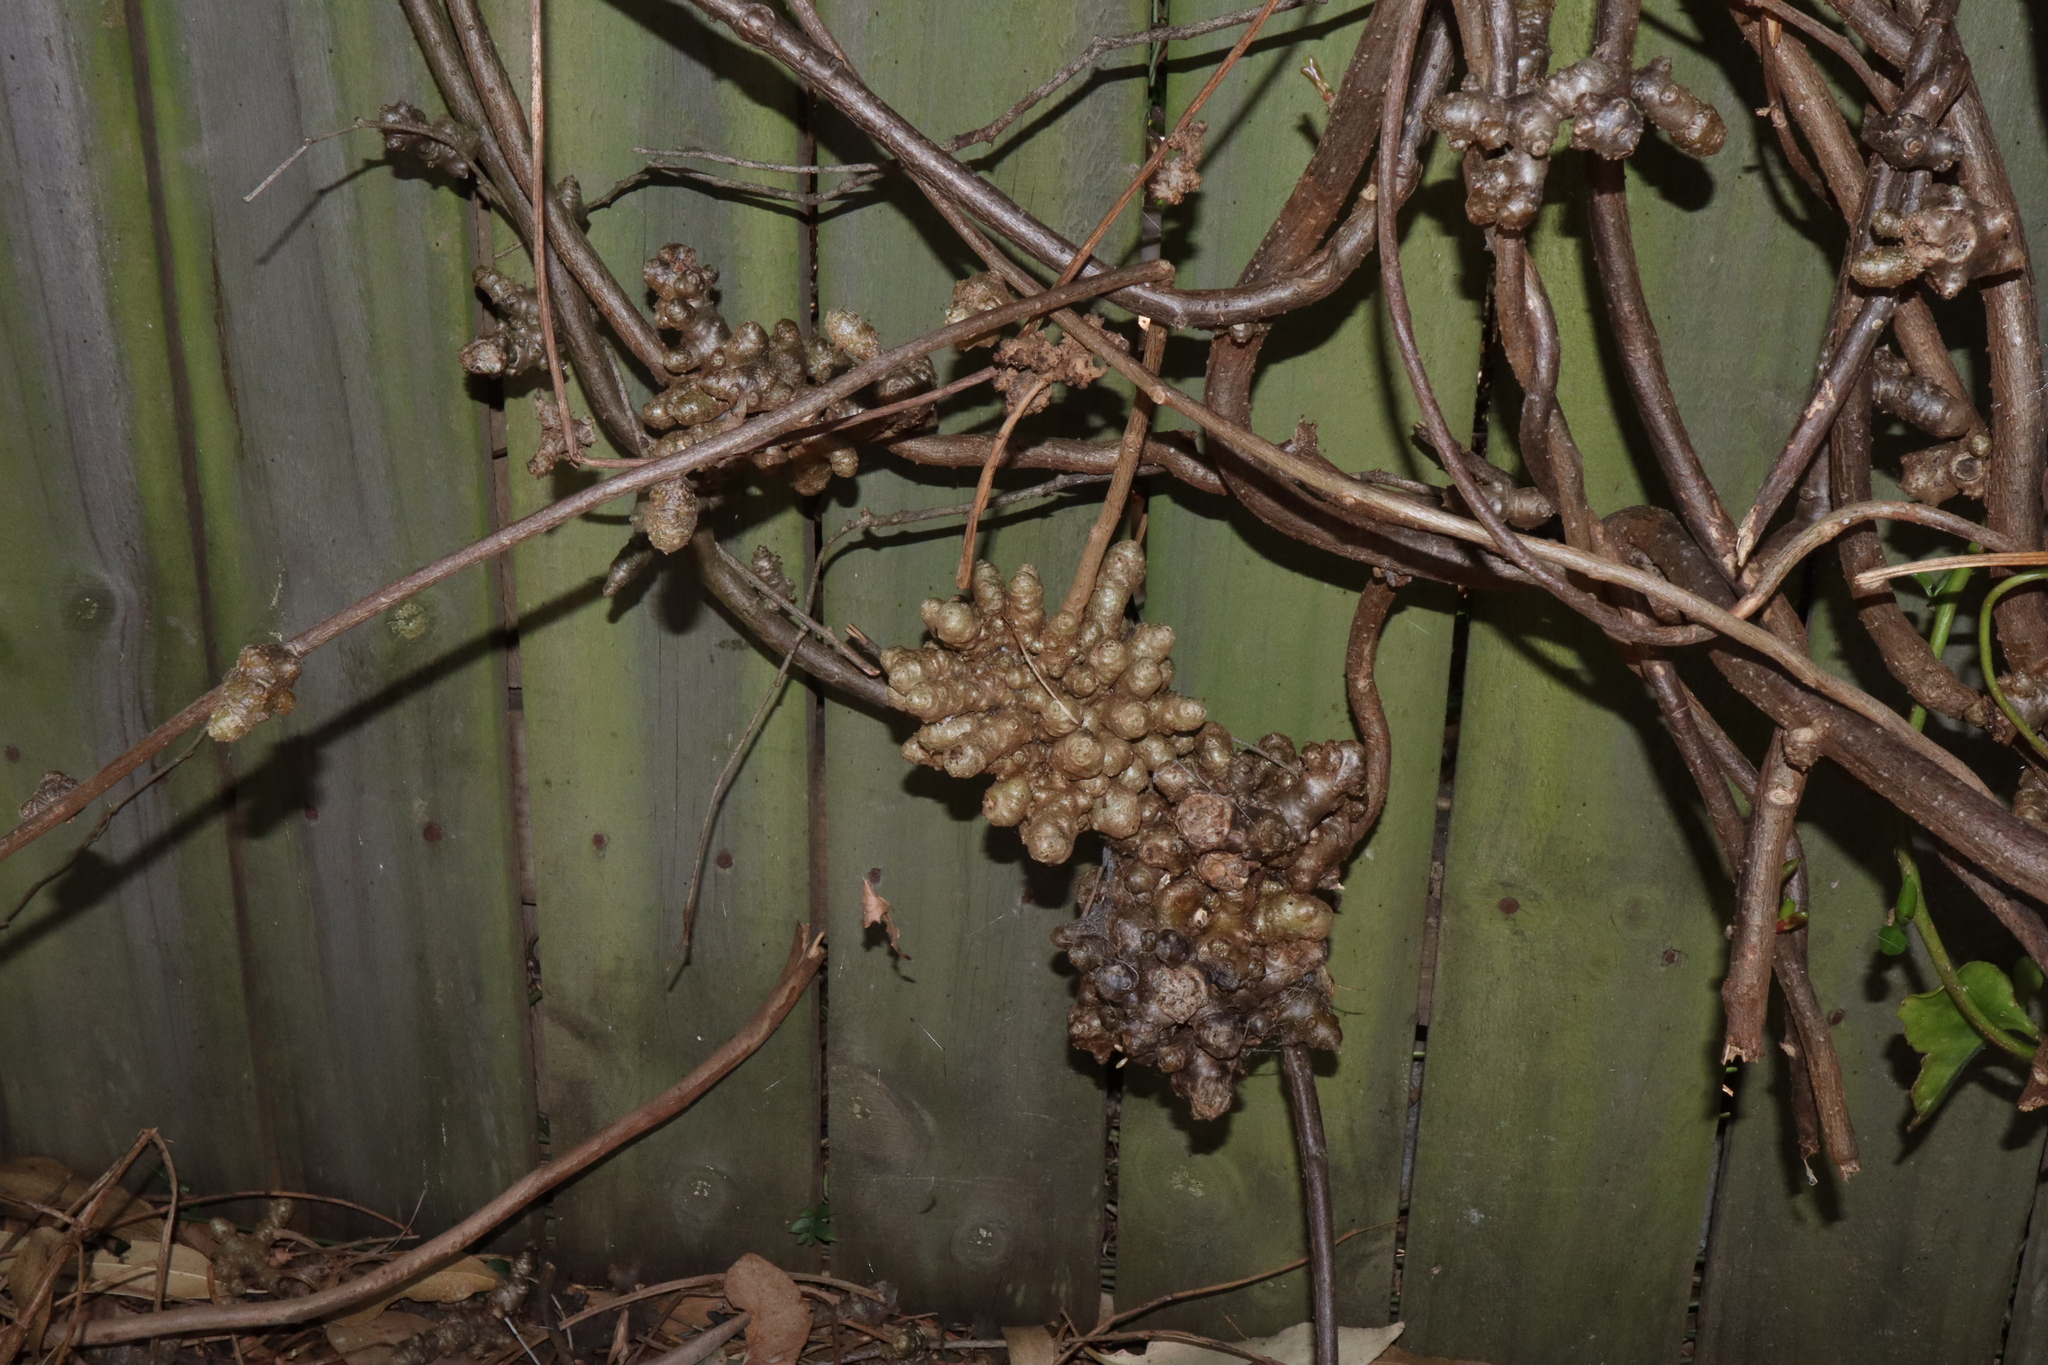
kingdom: Plantae
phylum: Tracheophyta
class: Magnoliopsida
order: Caryophyllales
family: Basellaceae
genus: Anredera
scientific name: Anredera cordifolia
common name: Heartleaf madeiravine
